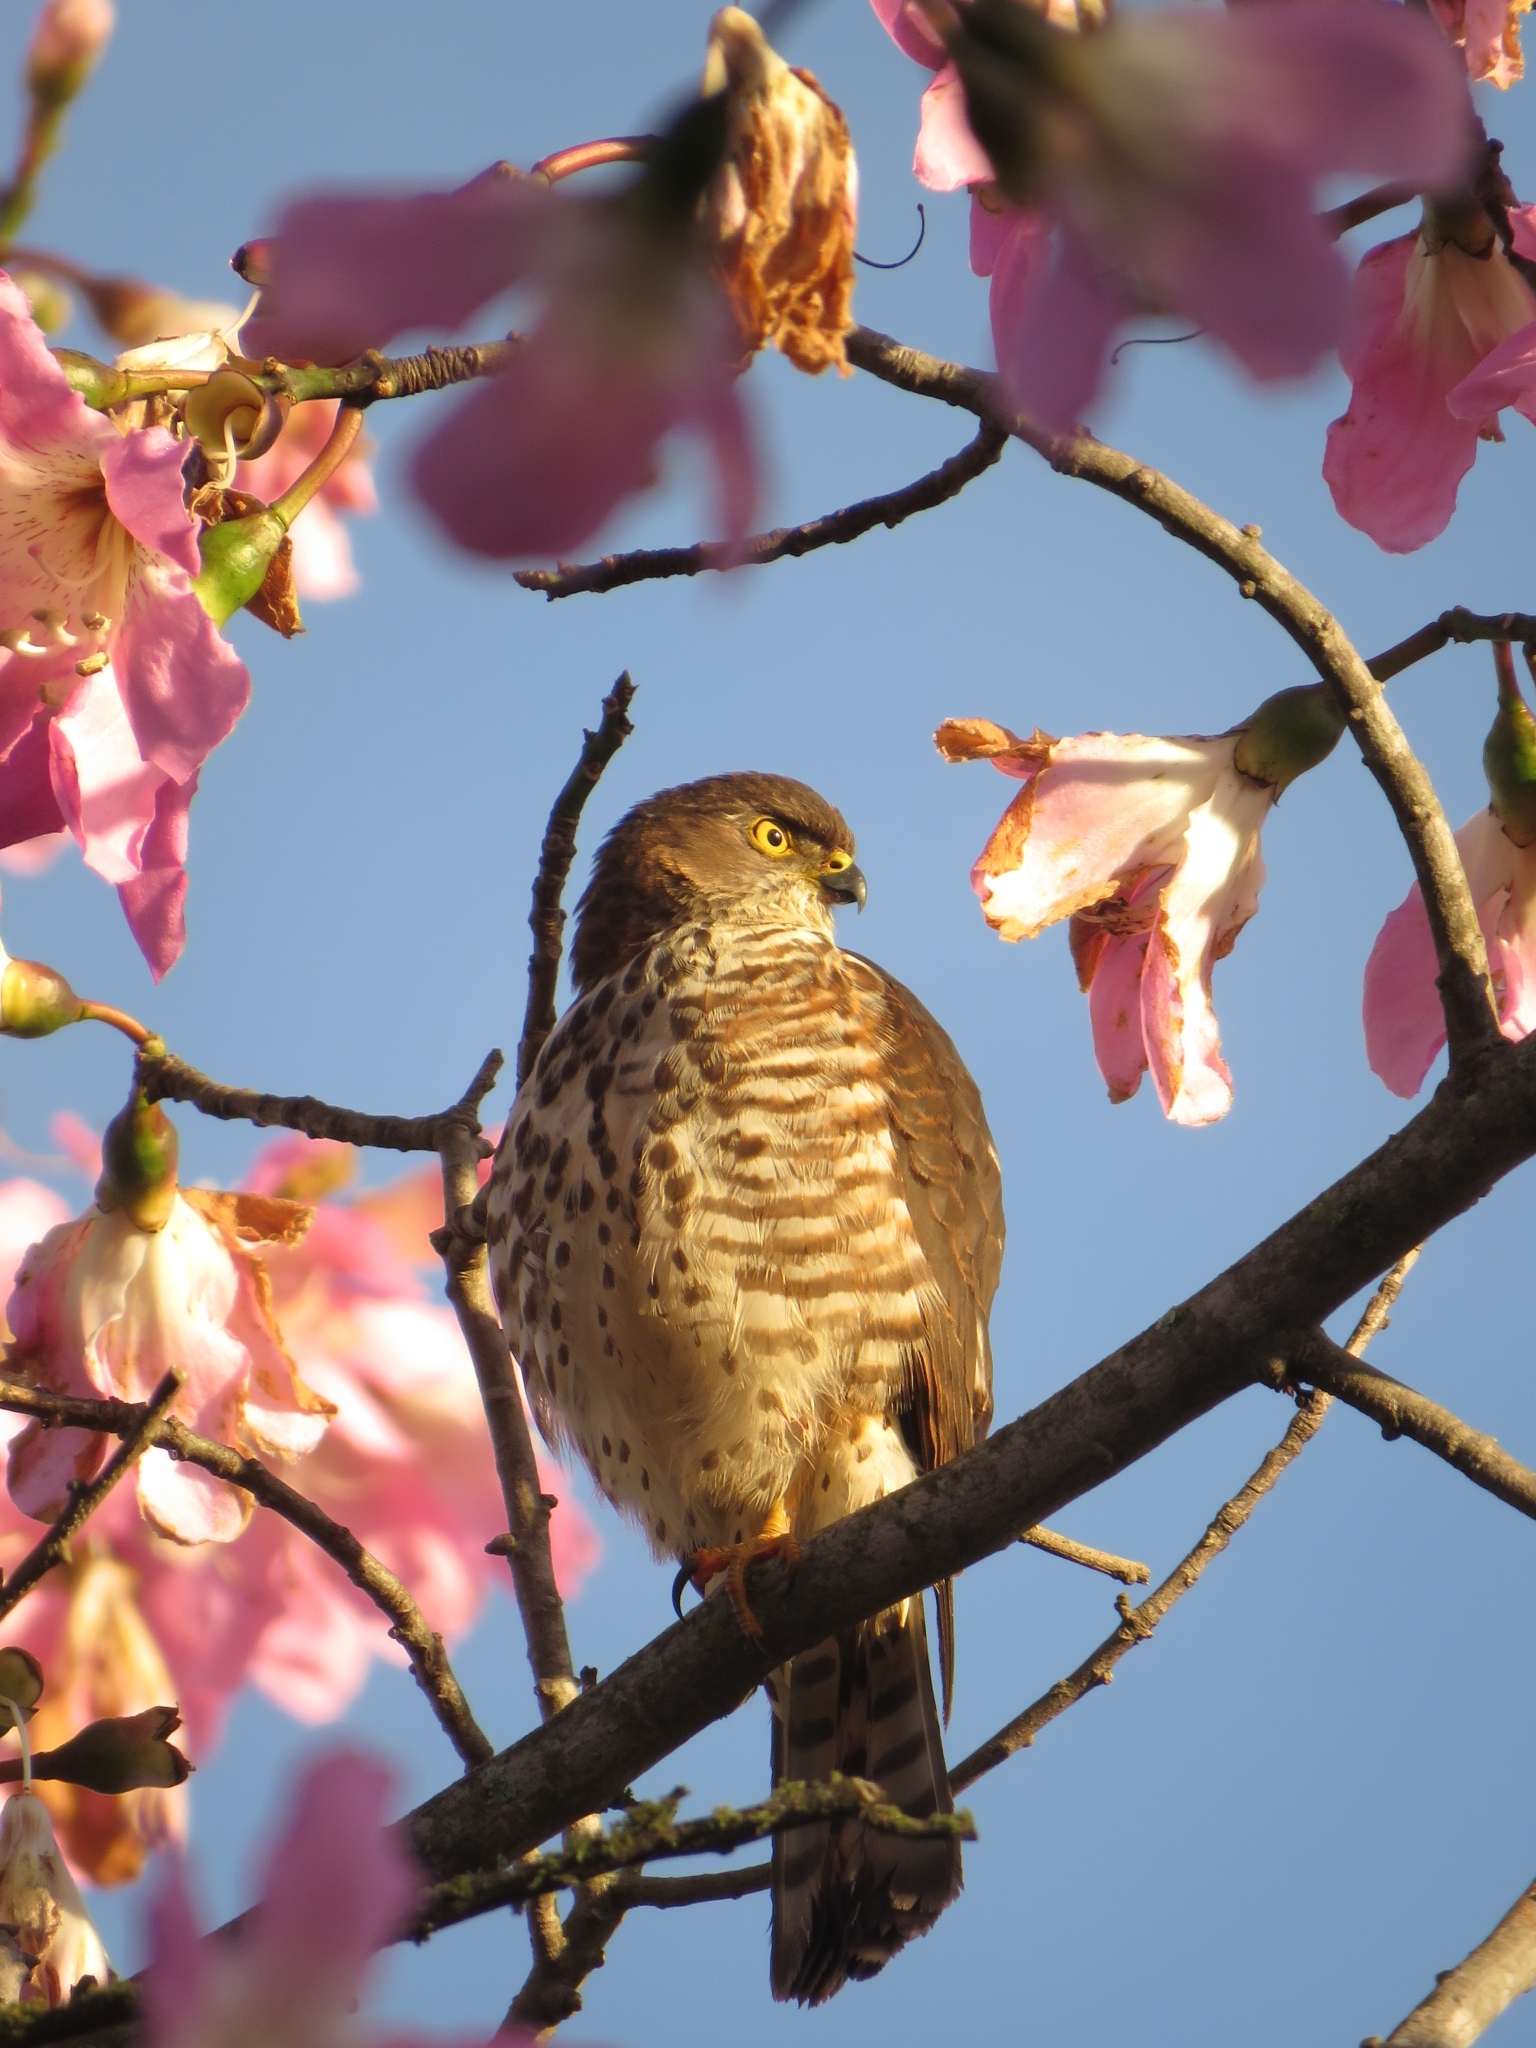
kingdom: Animalia
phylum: Chordata
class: Aves
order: Accipitriformes
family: Accipitridae
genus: Accipiter
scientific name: Accipiter minullus
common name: Little sparrowhawk
